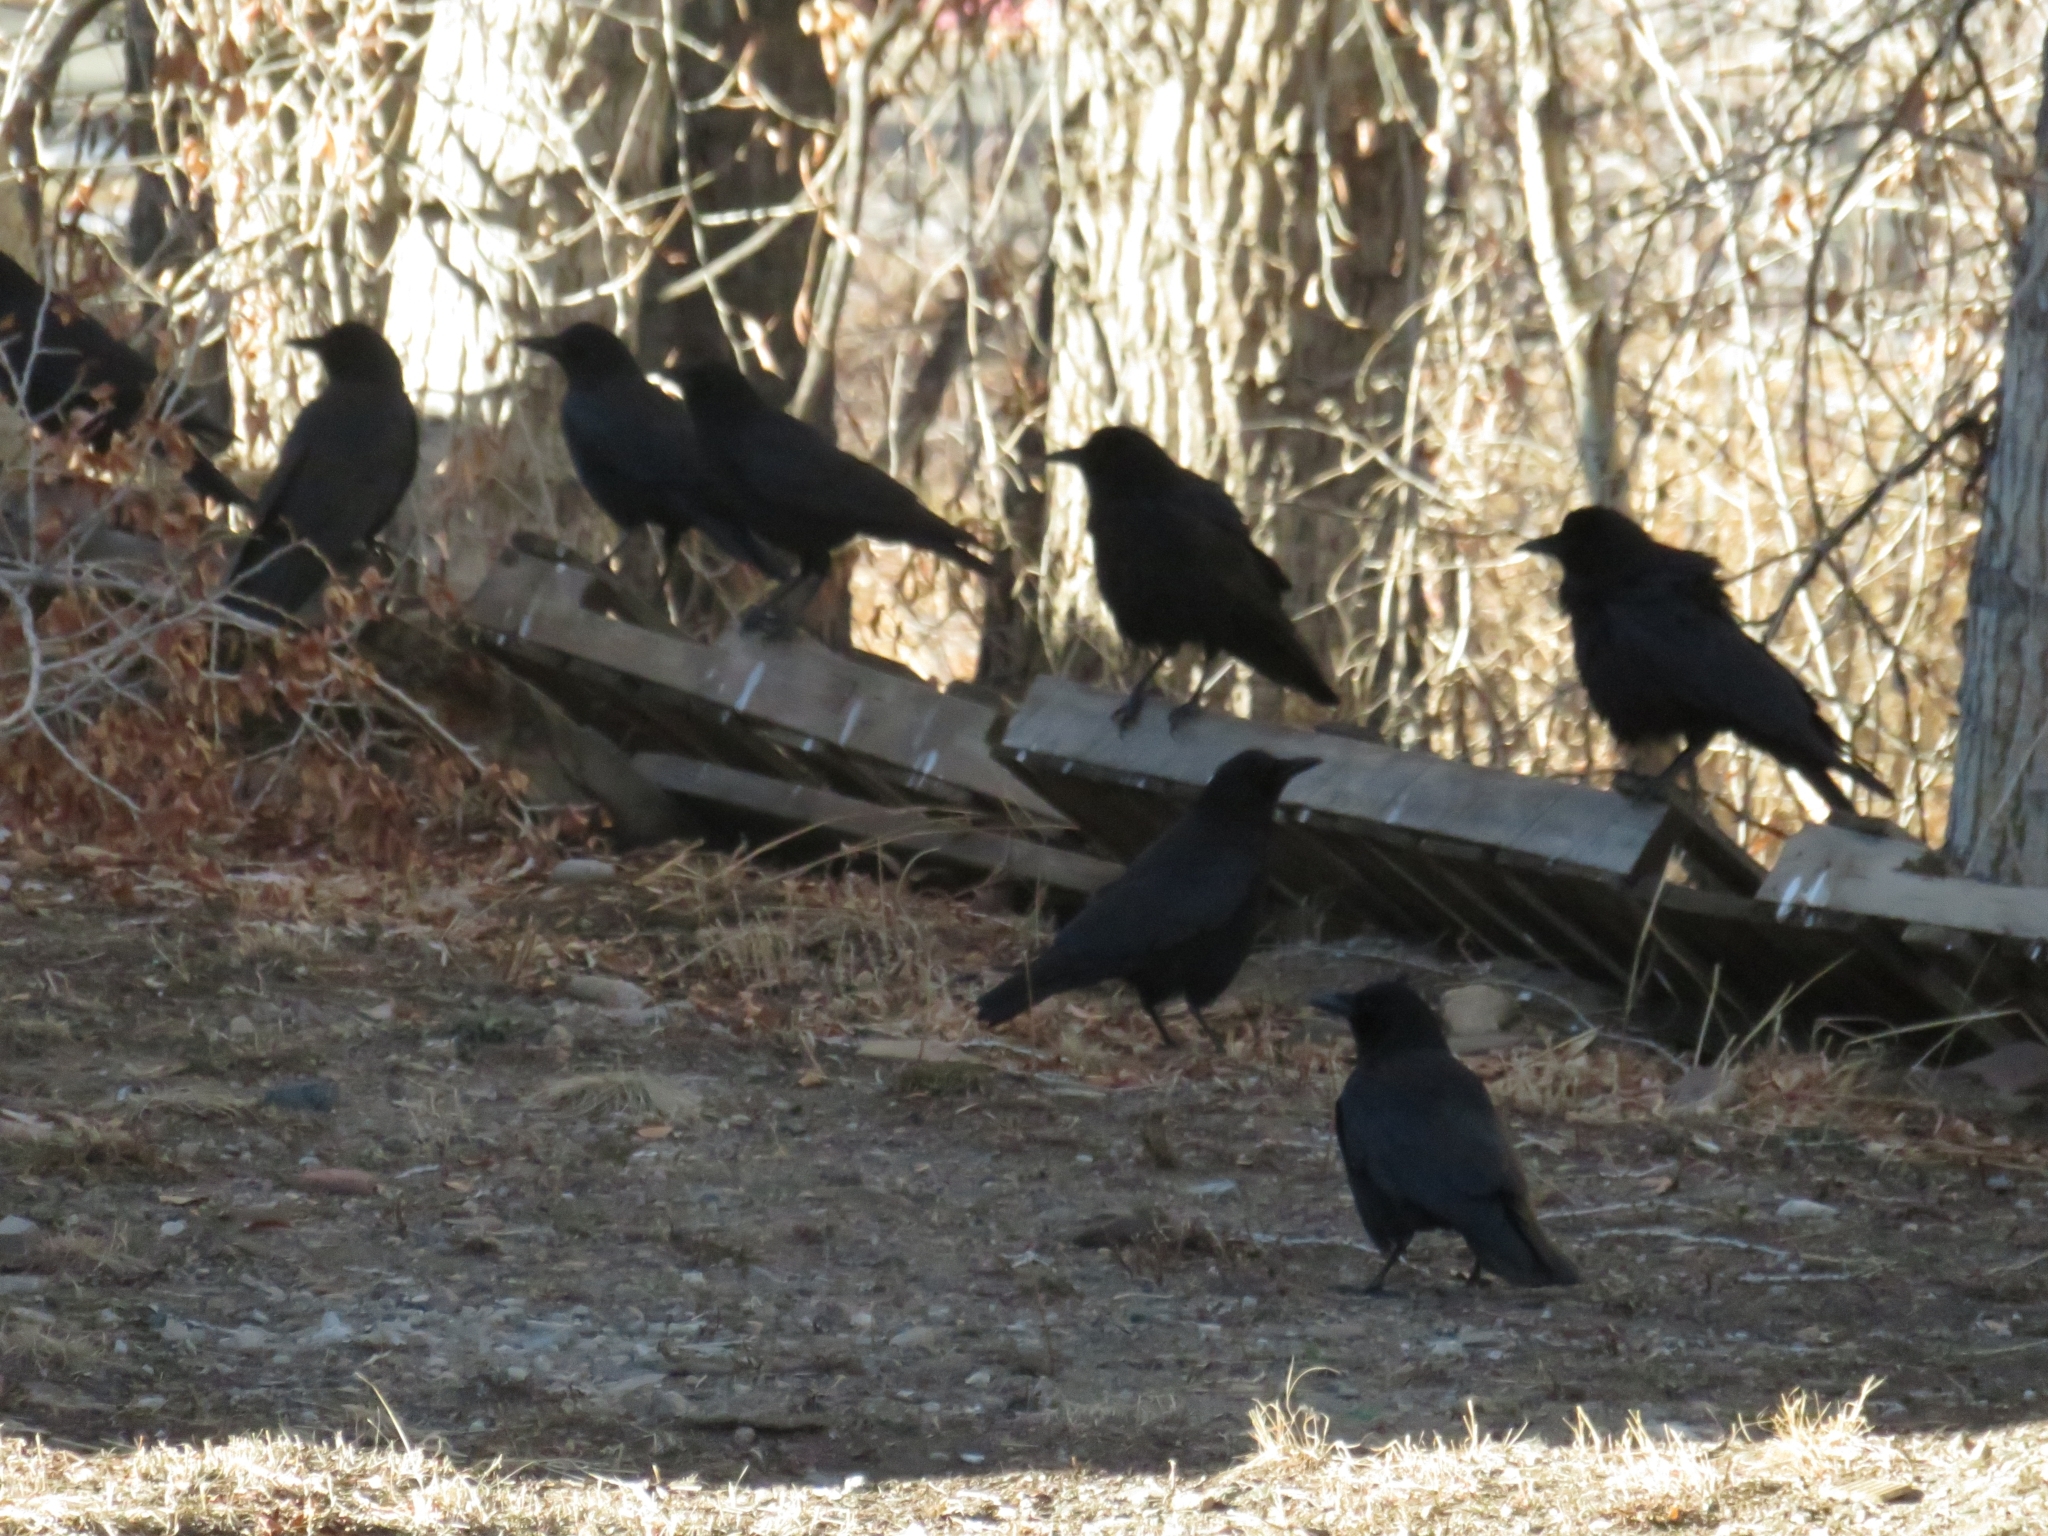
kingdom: Animalia
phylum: Chordata
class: Aves
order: Passeriformes
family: Corvidae
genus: Corvus
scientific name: Corvus brachyrhynchos
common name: American crow
